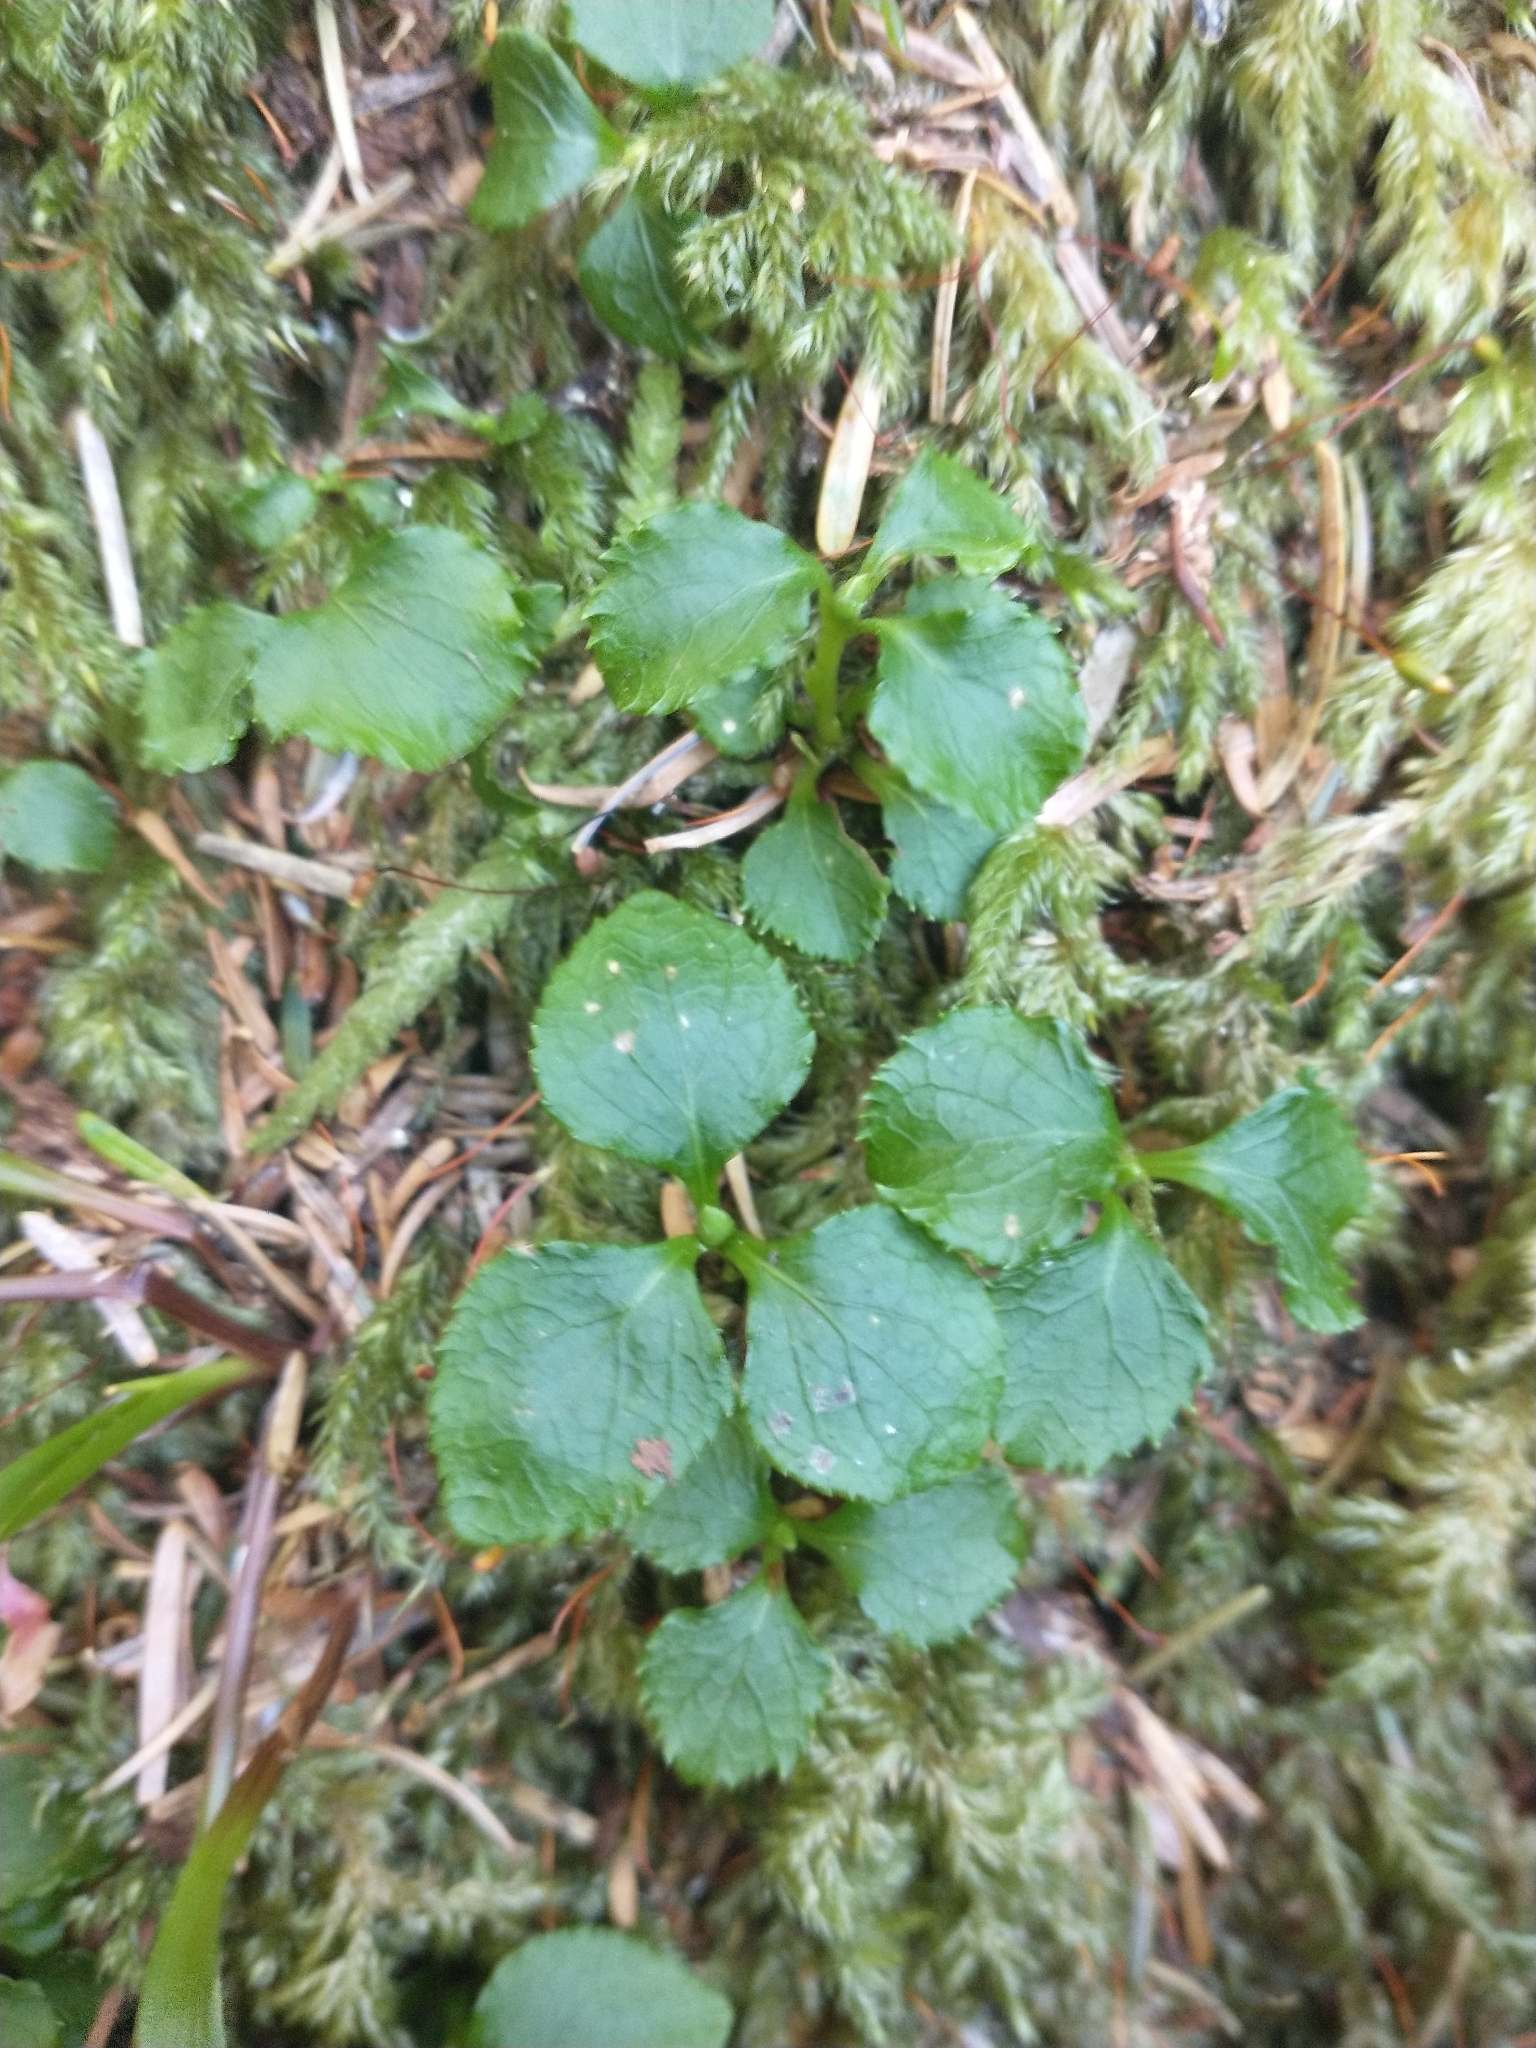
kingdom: Plantae
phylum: Tracheophyta
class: Magnoliopsida
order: Ericales
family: Ericaceae
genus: Moneses
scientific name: Moneses uniflora
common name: One-flowered wintergreen
